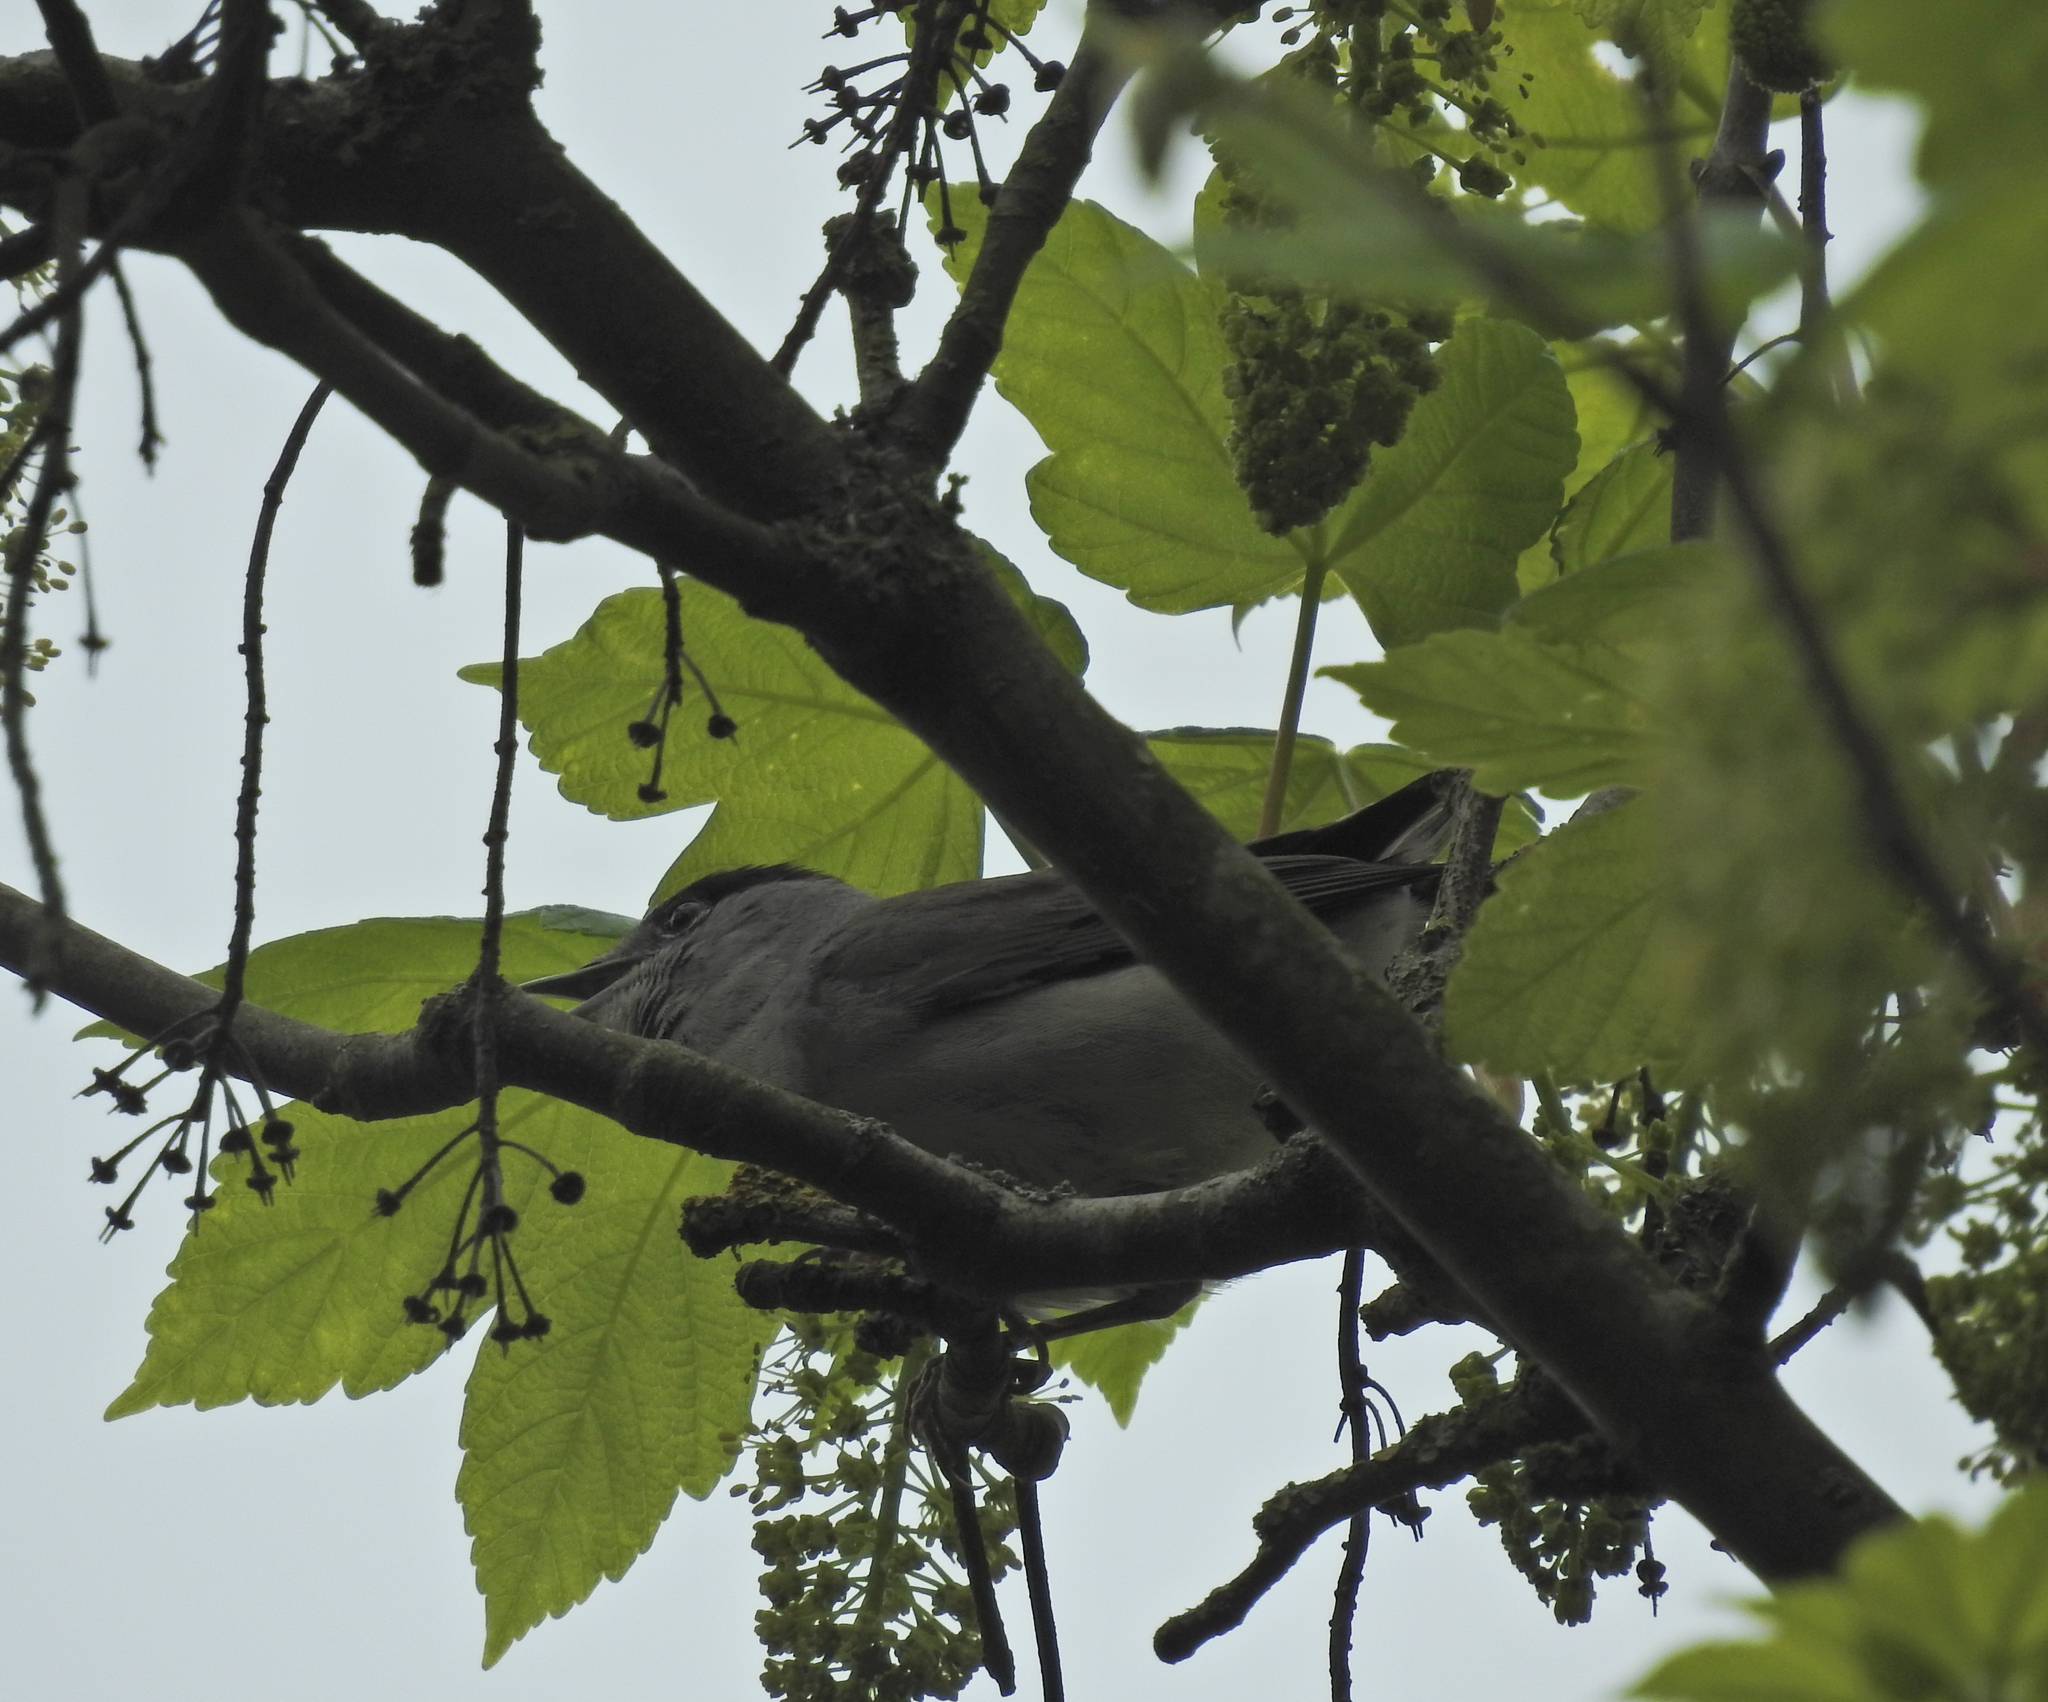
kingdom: Animalia
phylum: Chordata
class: Aves
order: Passeriformes
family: Sylviidae
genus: Sylvia
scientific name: Sylvia atricapilla
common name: Eurasian blackcap
